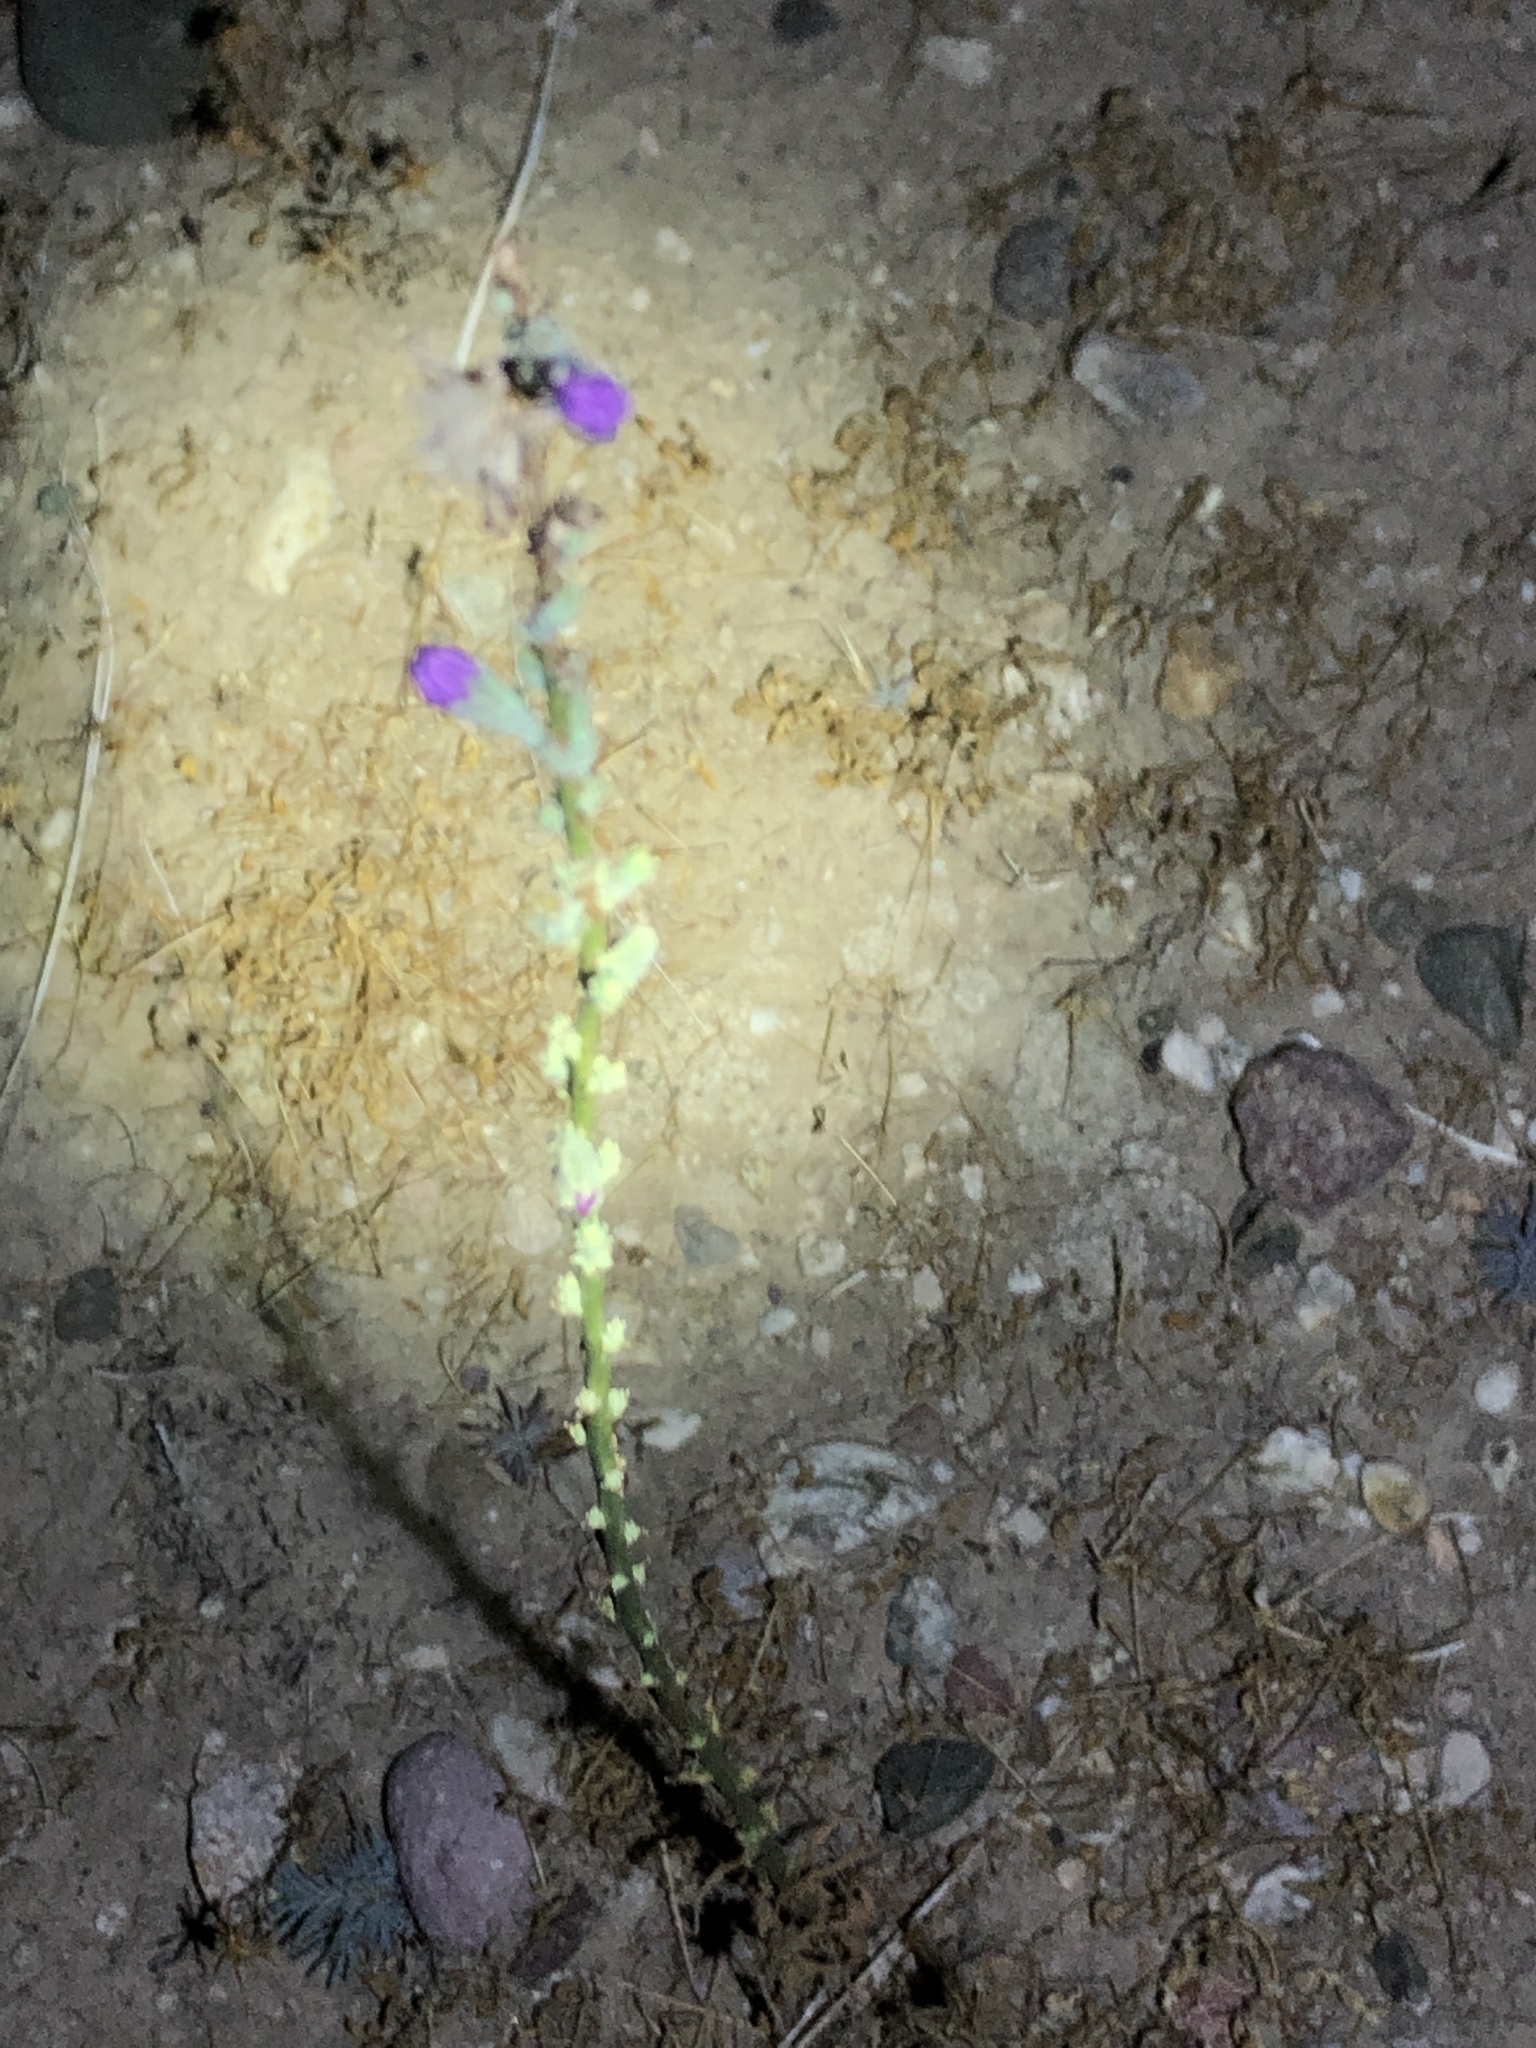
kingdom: Plantae
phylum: Tracheophyta
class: Magnoliopsida
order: Asterales
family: Asteraceae
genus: Stephanomeria
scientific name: Stephanomeria cichoriacea
